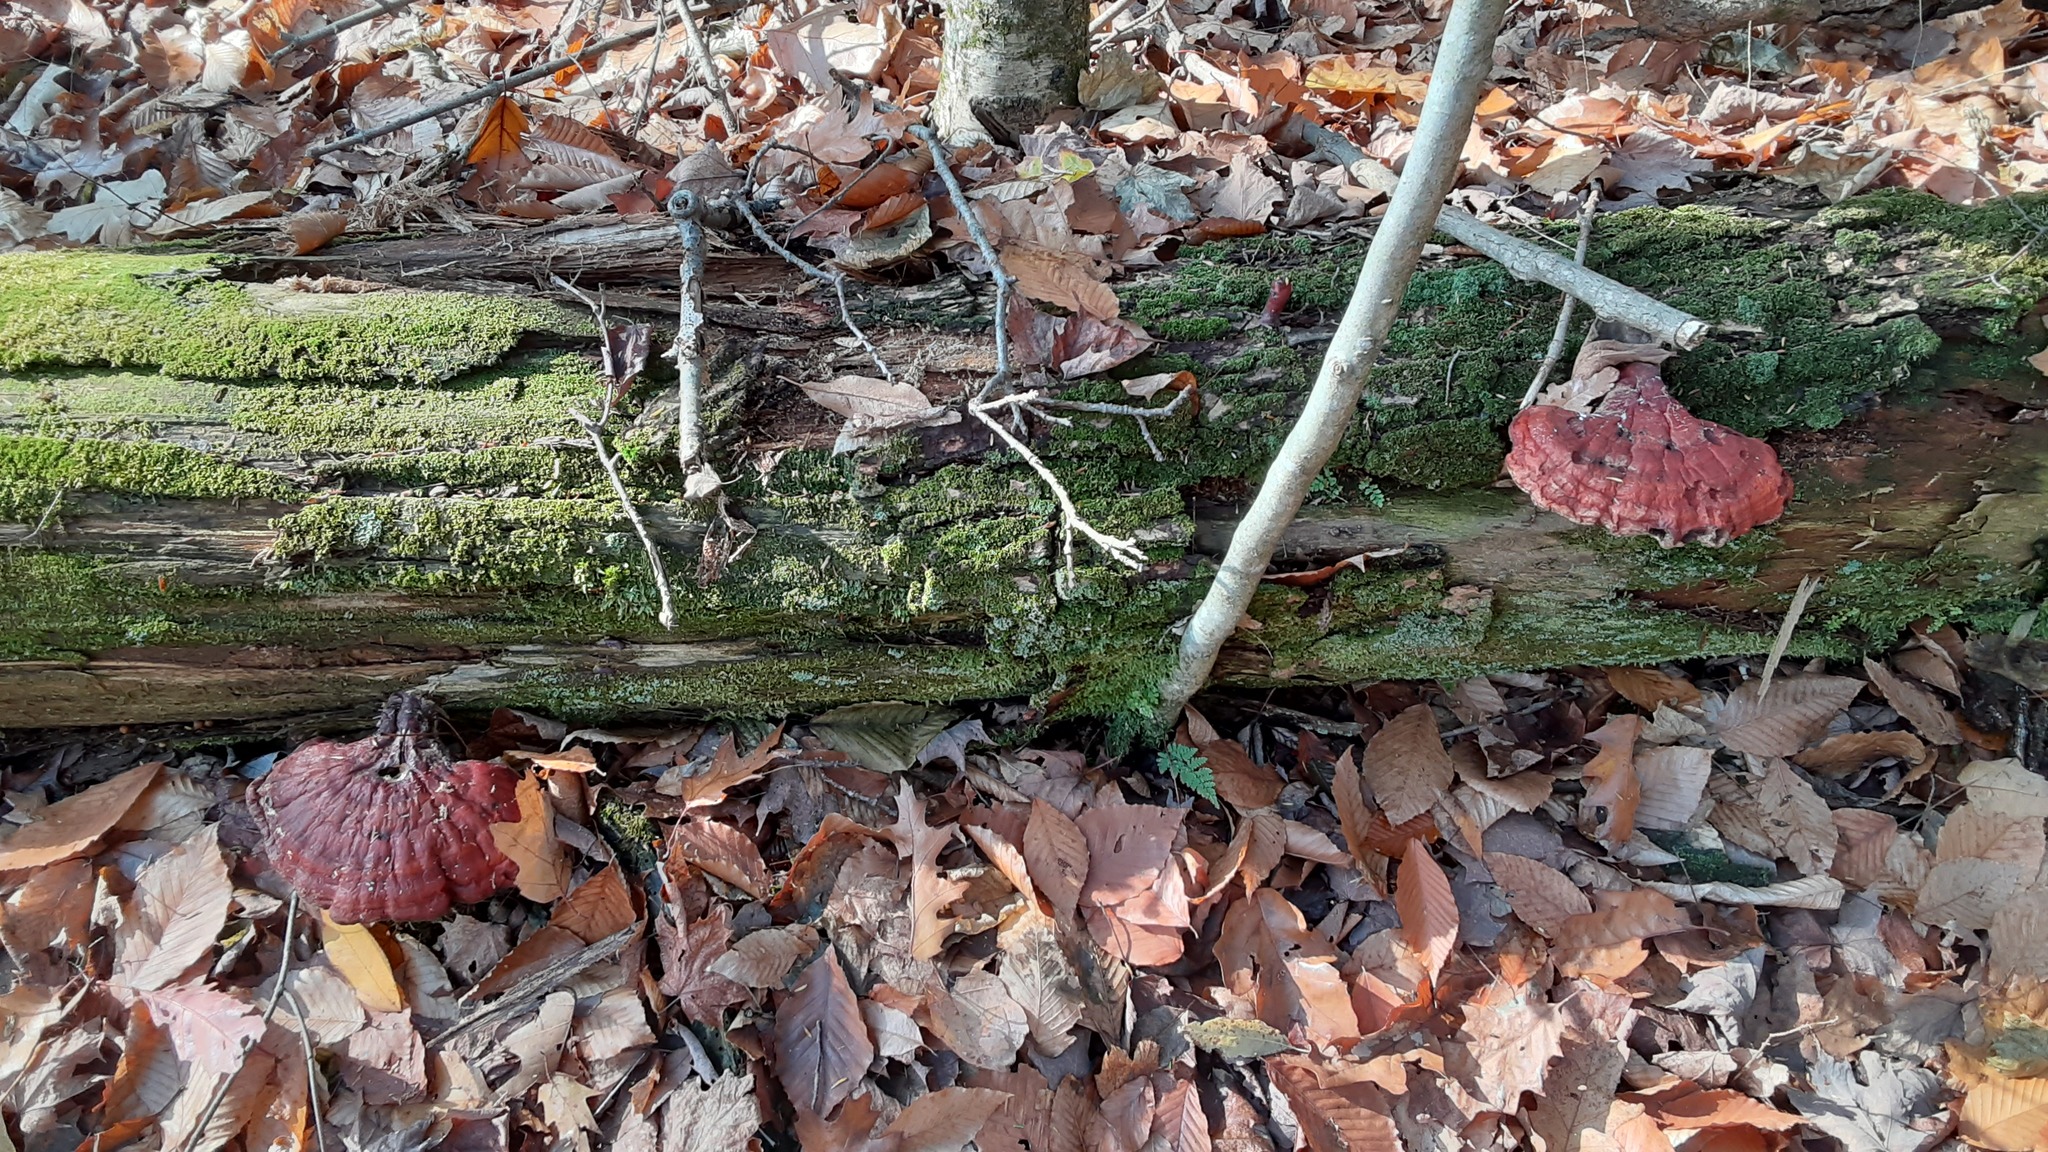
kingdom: Fungi
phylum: Basidiomycota
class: Agaricomycetes
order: Polyporales
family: Polyporaceae
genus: Ganoderma
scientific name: Ganoderma tsugae
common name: Hemlock varnish shelf
